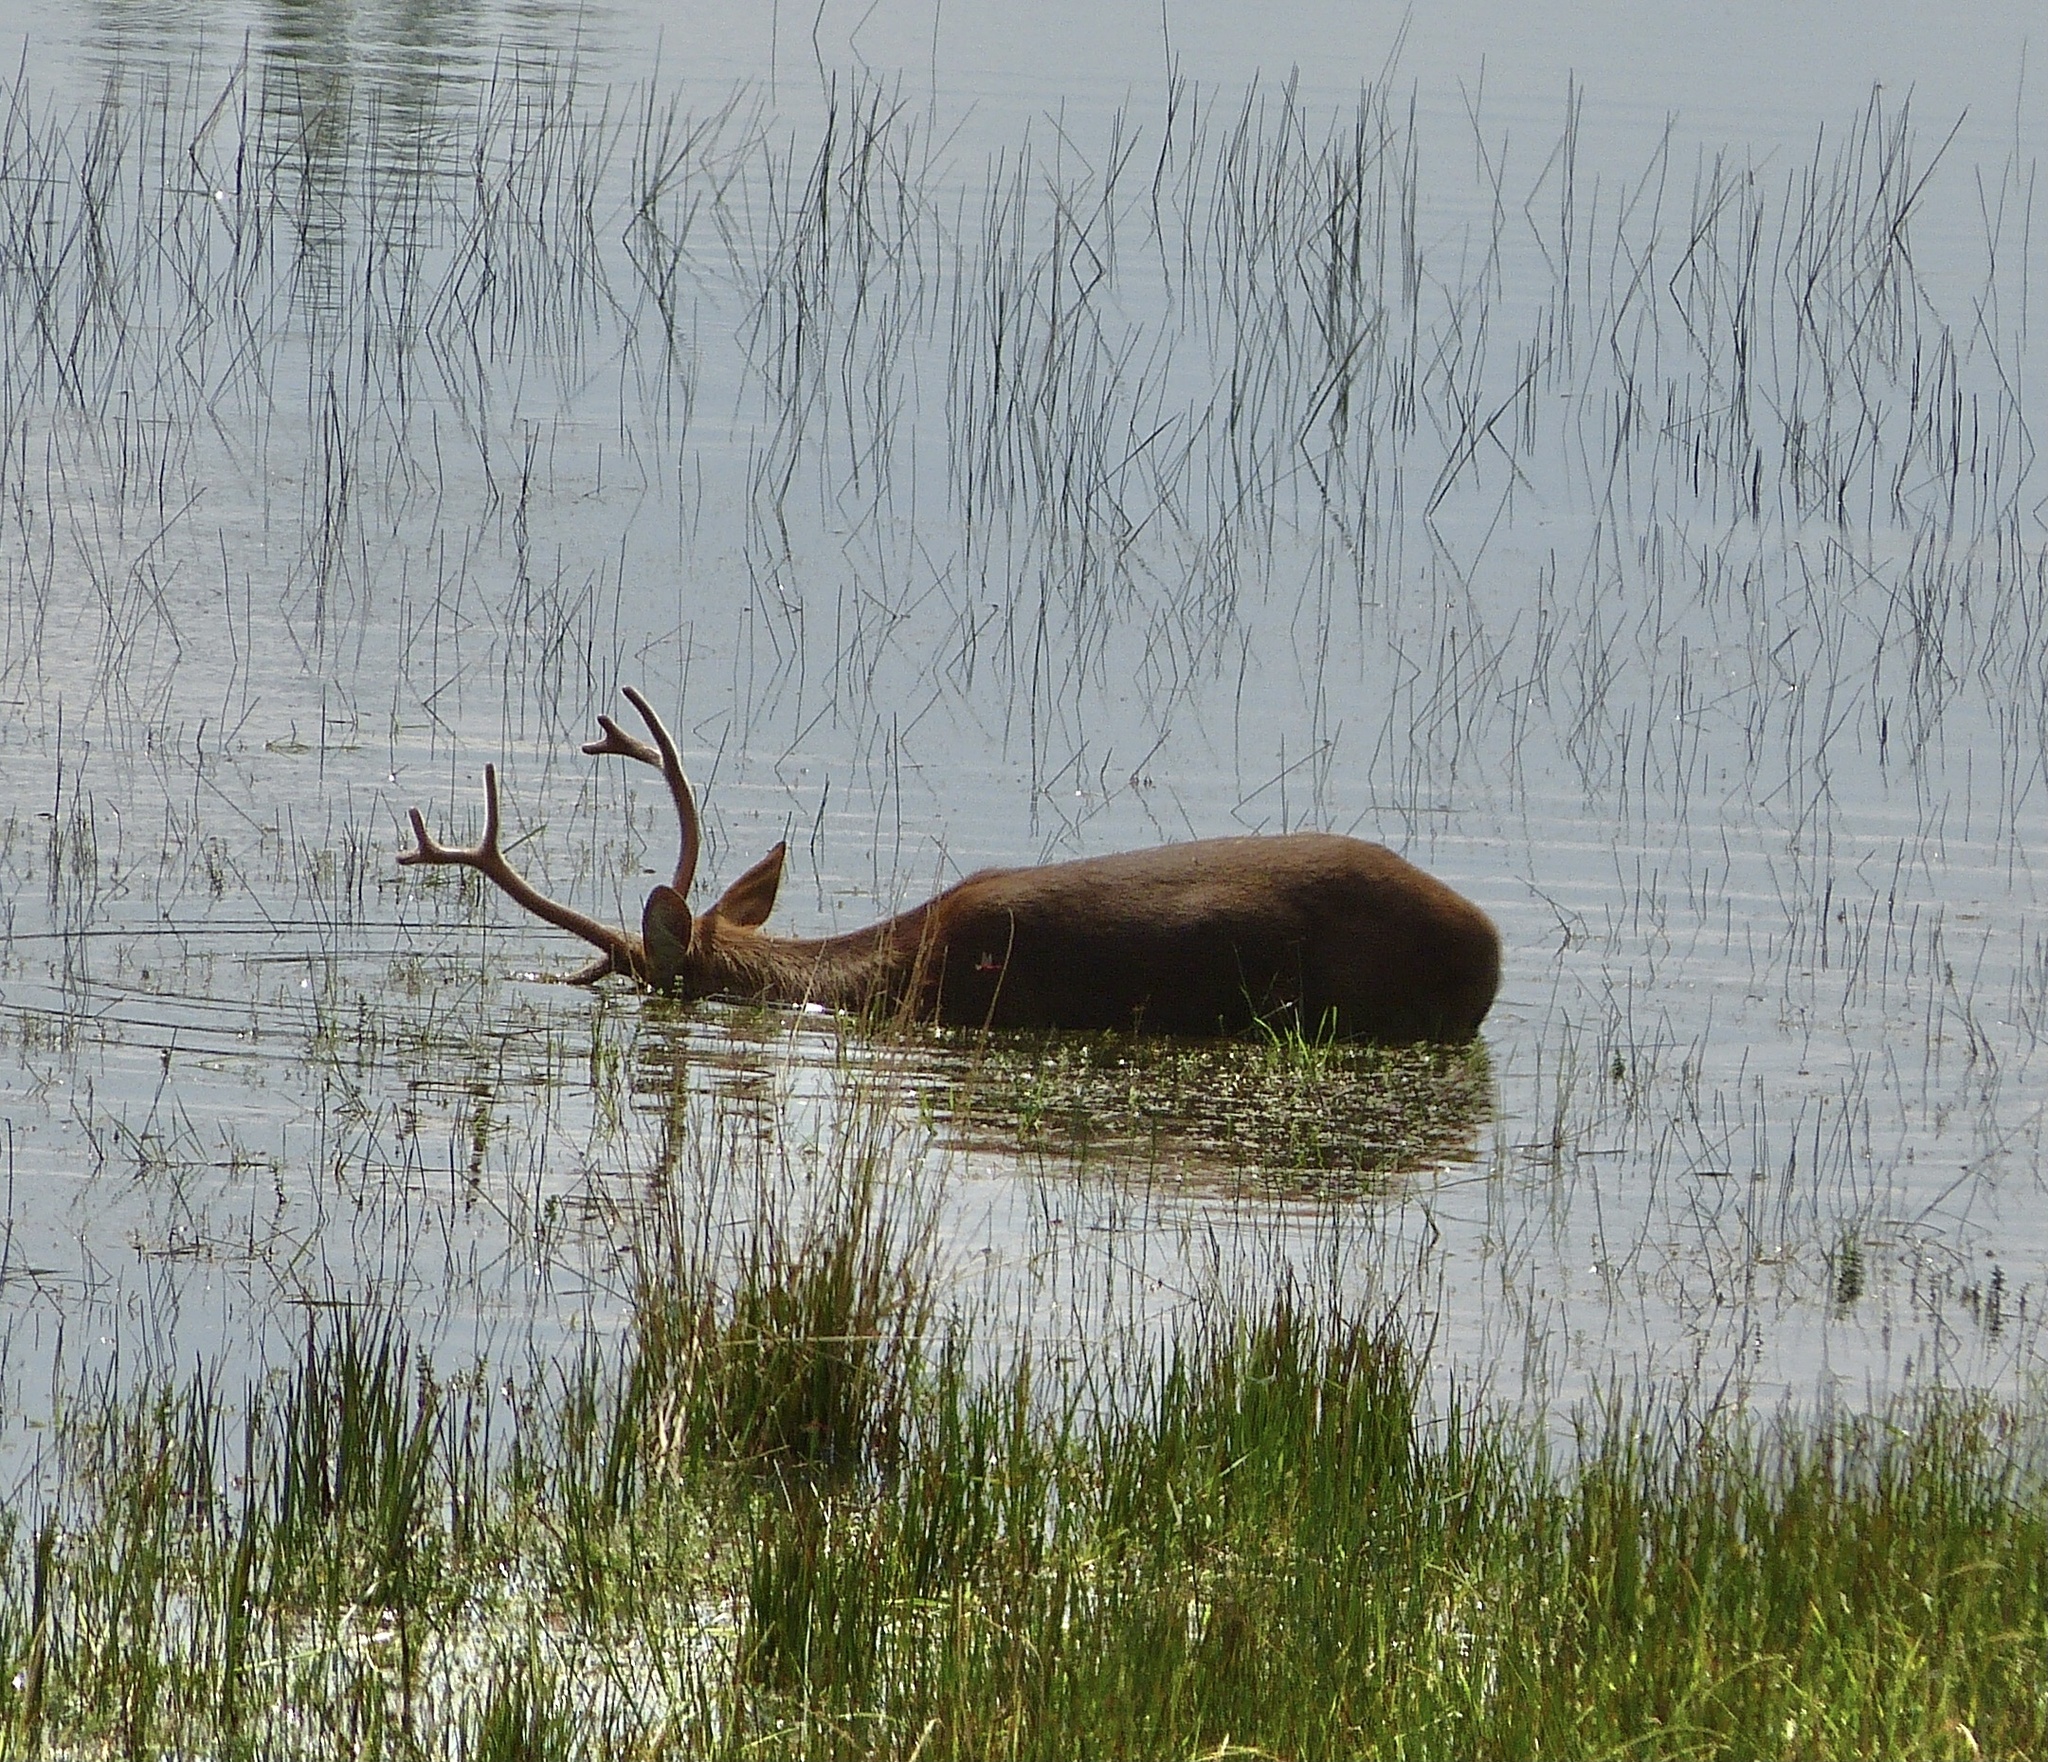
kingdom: Animalia
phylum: Chordata
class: Mammalia
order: Artiodactyla
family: Cervidae
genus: Rucervus
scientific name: Rucervus duvaucelii
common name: Barasingha
